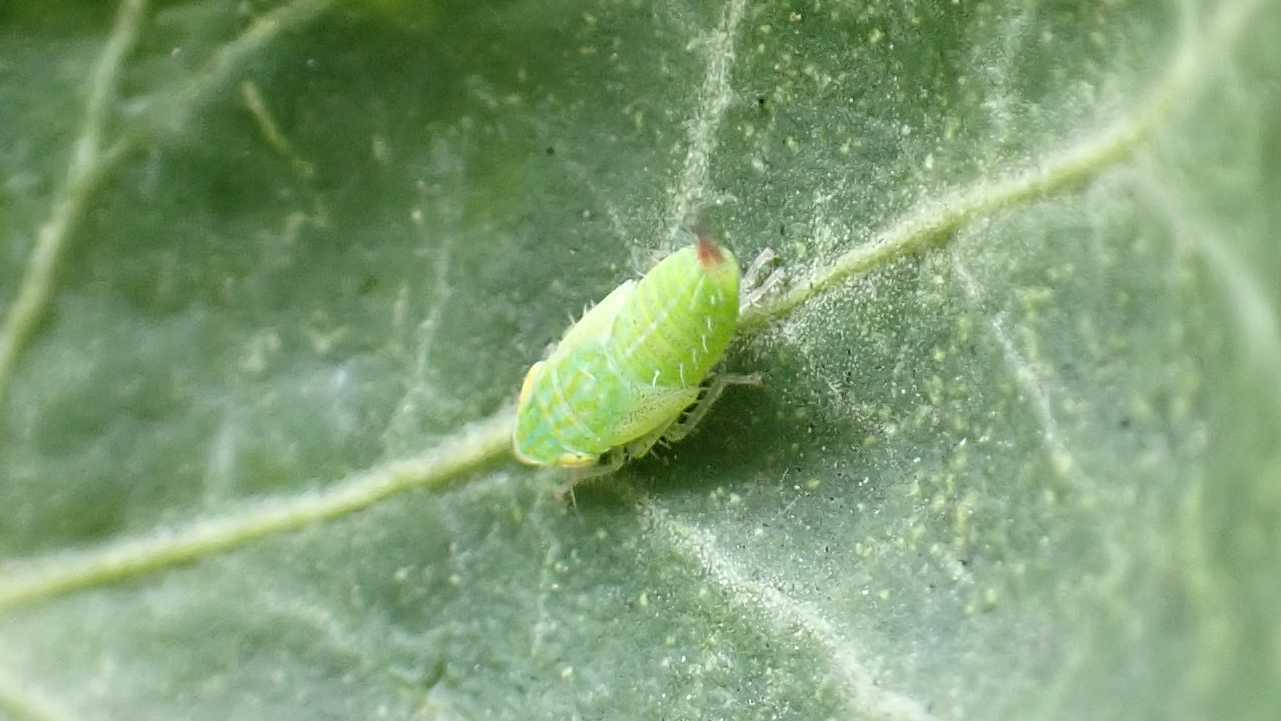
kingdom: Animalia
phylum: Arthropoda
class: Insecta
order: Hemiptera
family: Cicadellidae
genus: Fieberiella
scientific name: Fieberiella
